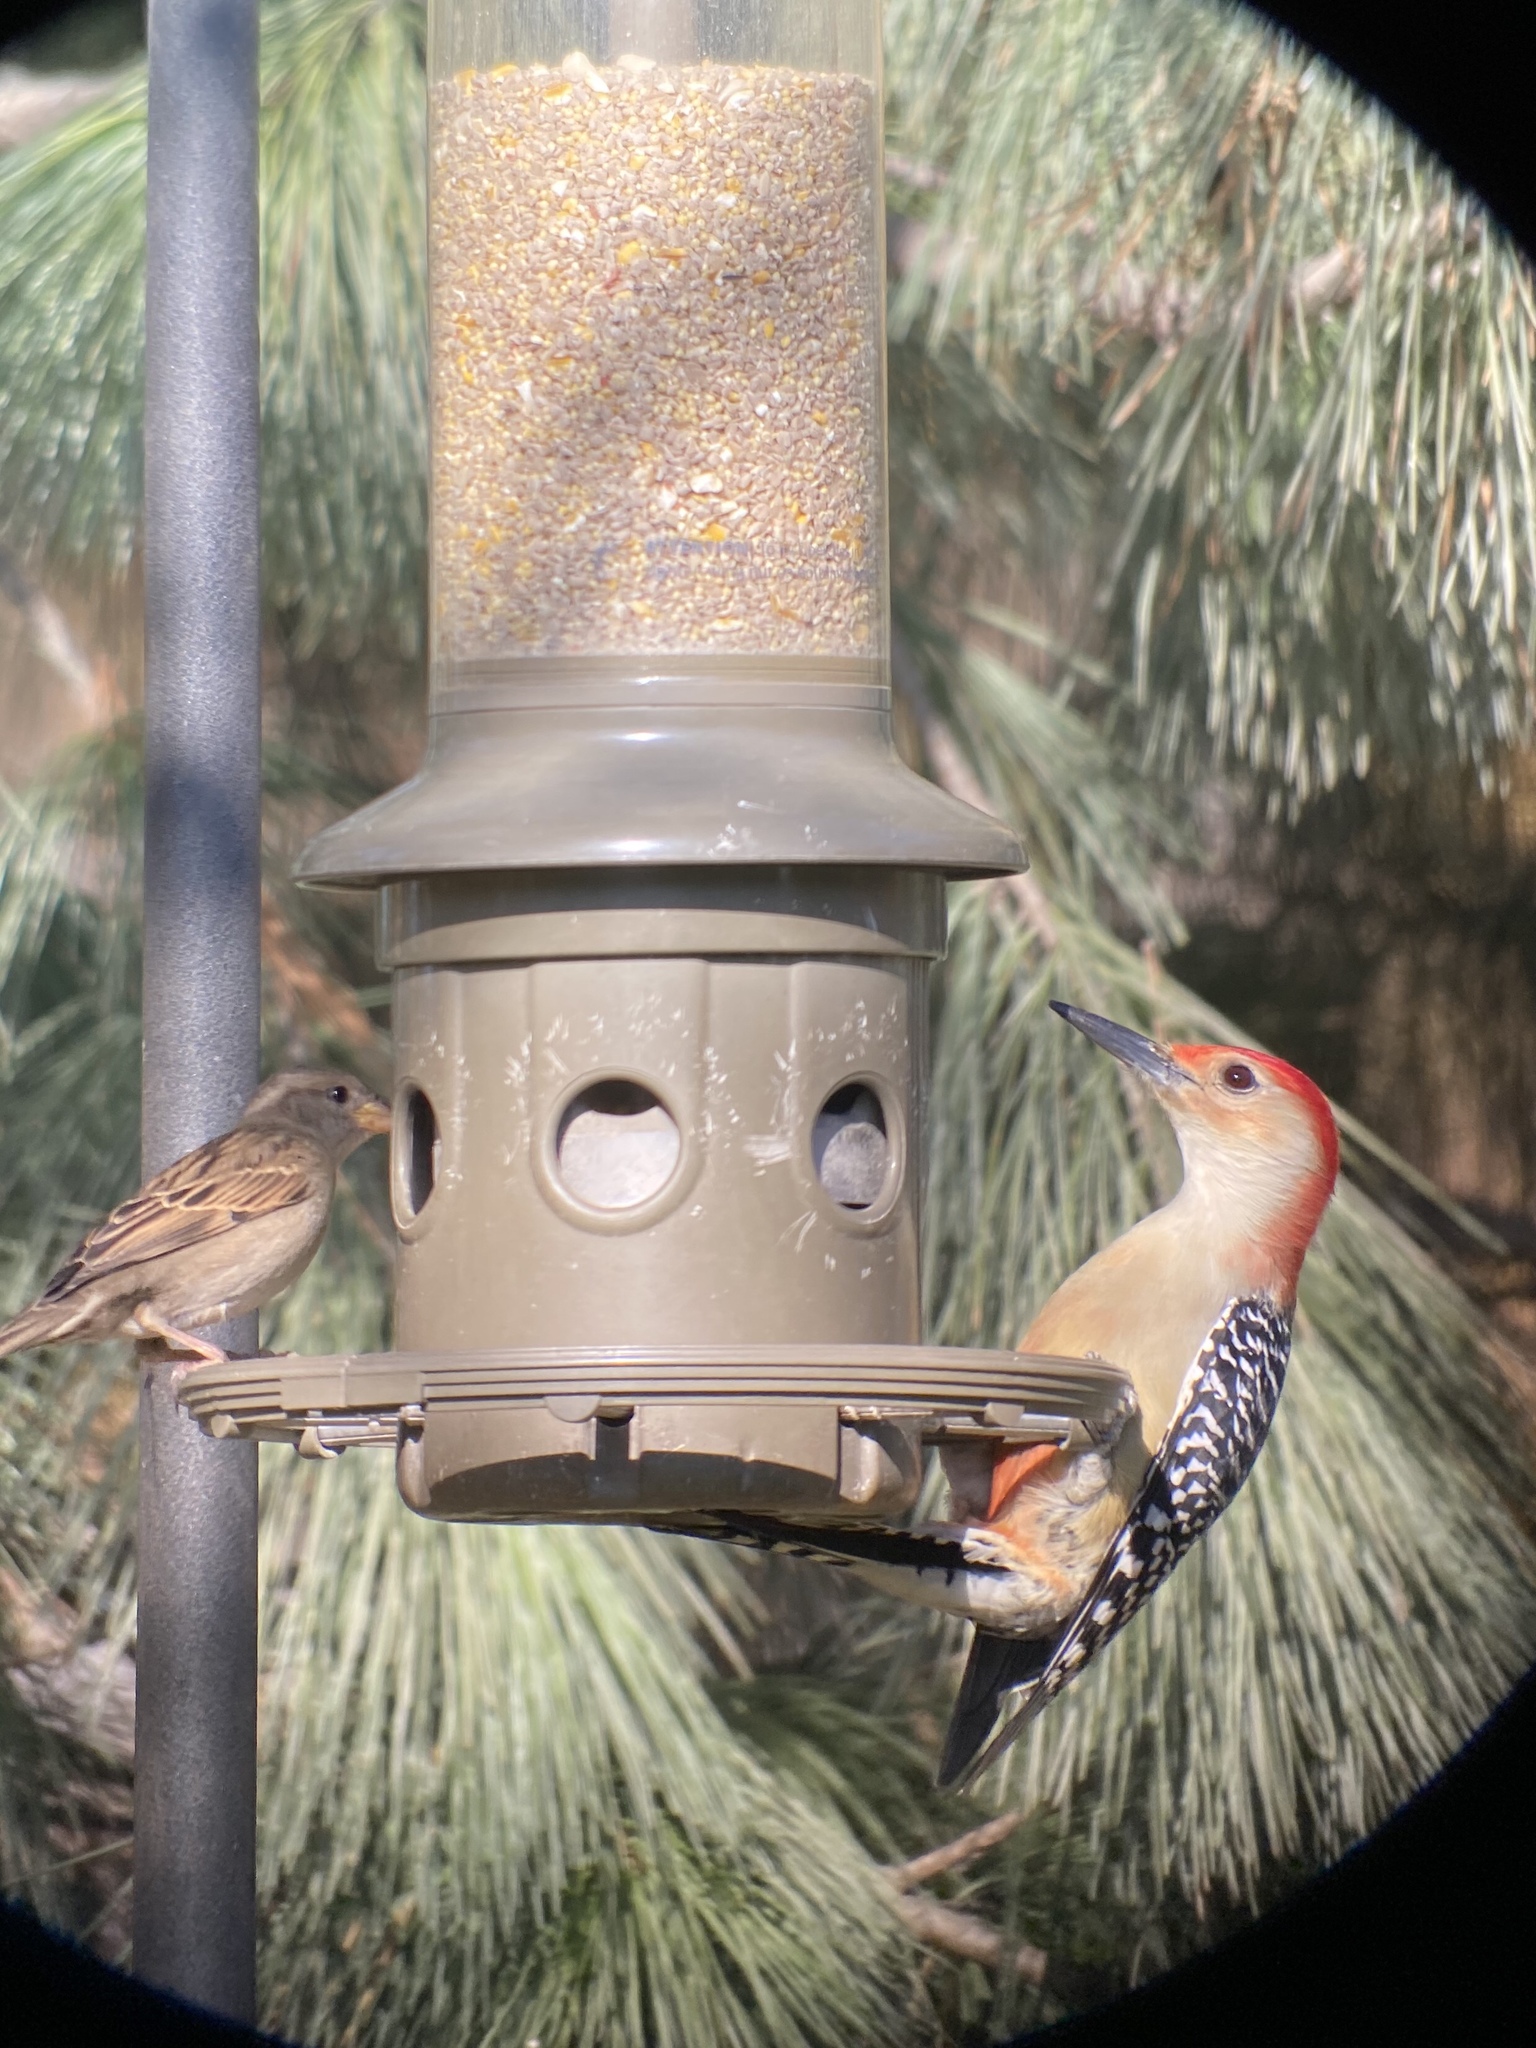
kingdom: Animalia
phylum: Chordata
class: Aves
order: Piciformes
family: Picidae
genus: Melanerpes
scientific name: Melanerpes carolinus
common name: Red-bellied woodpecker
